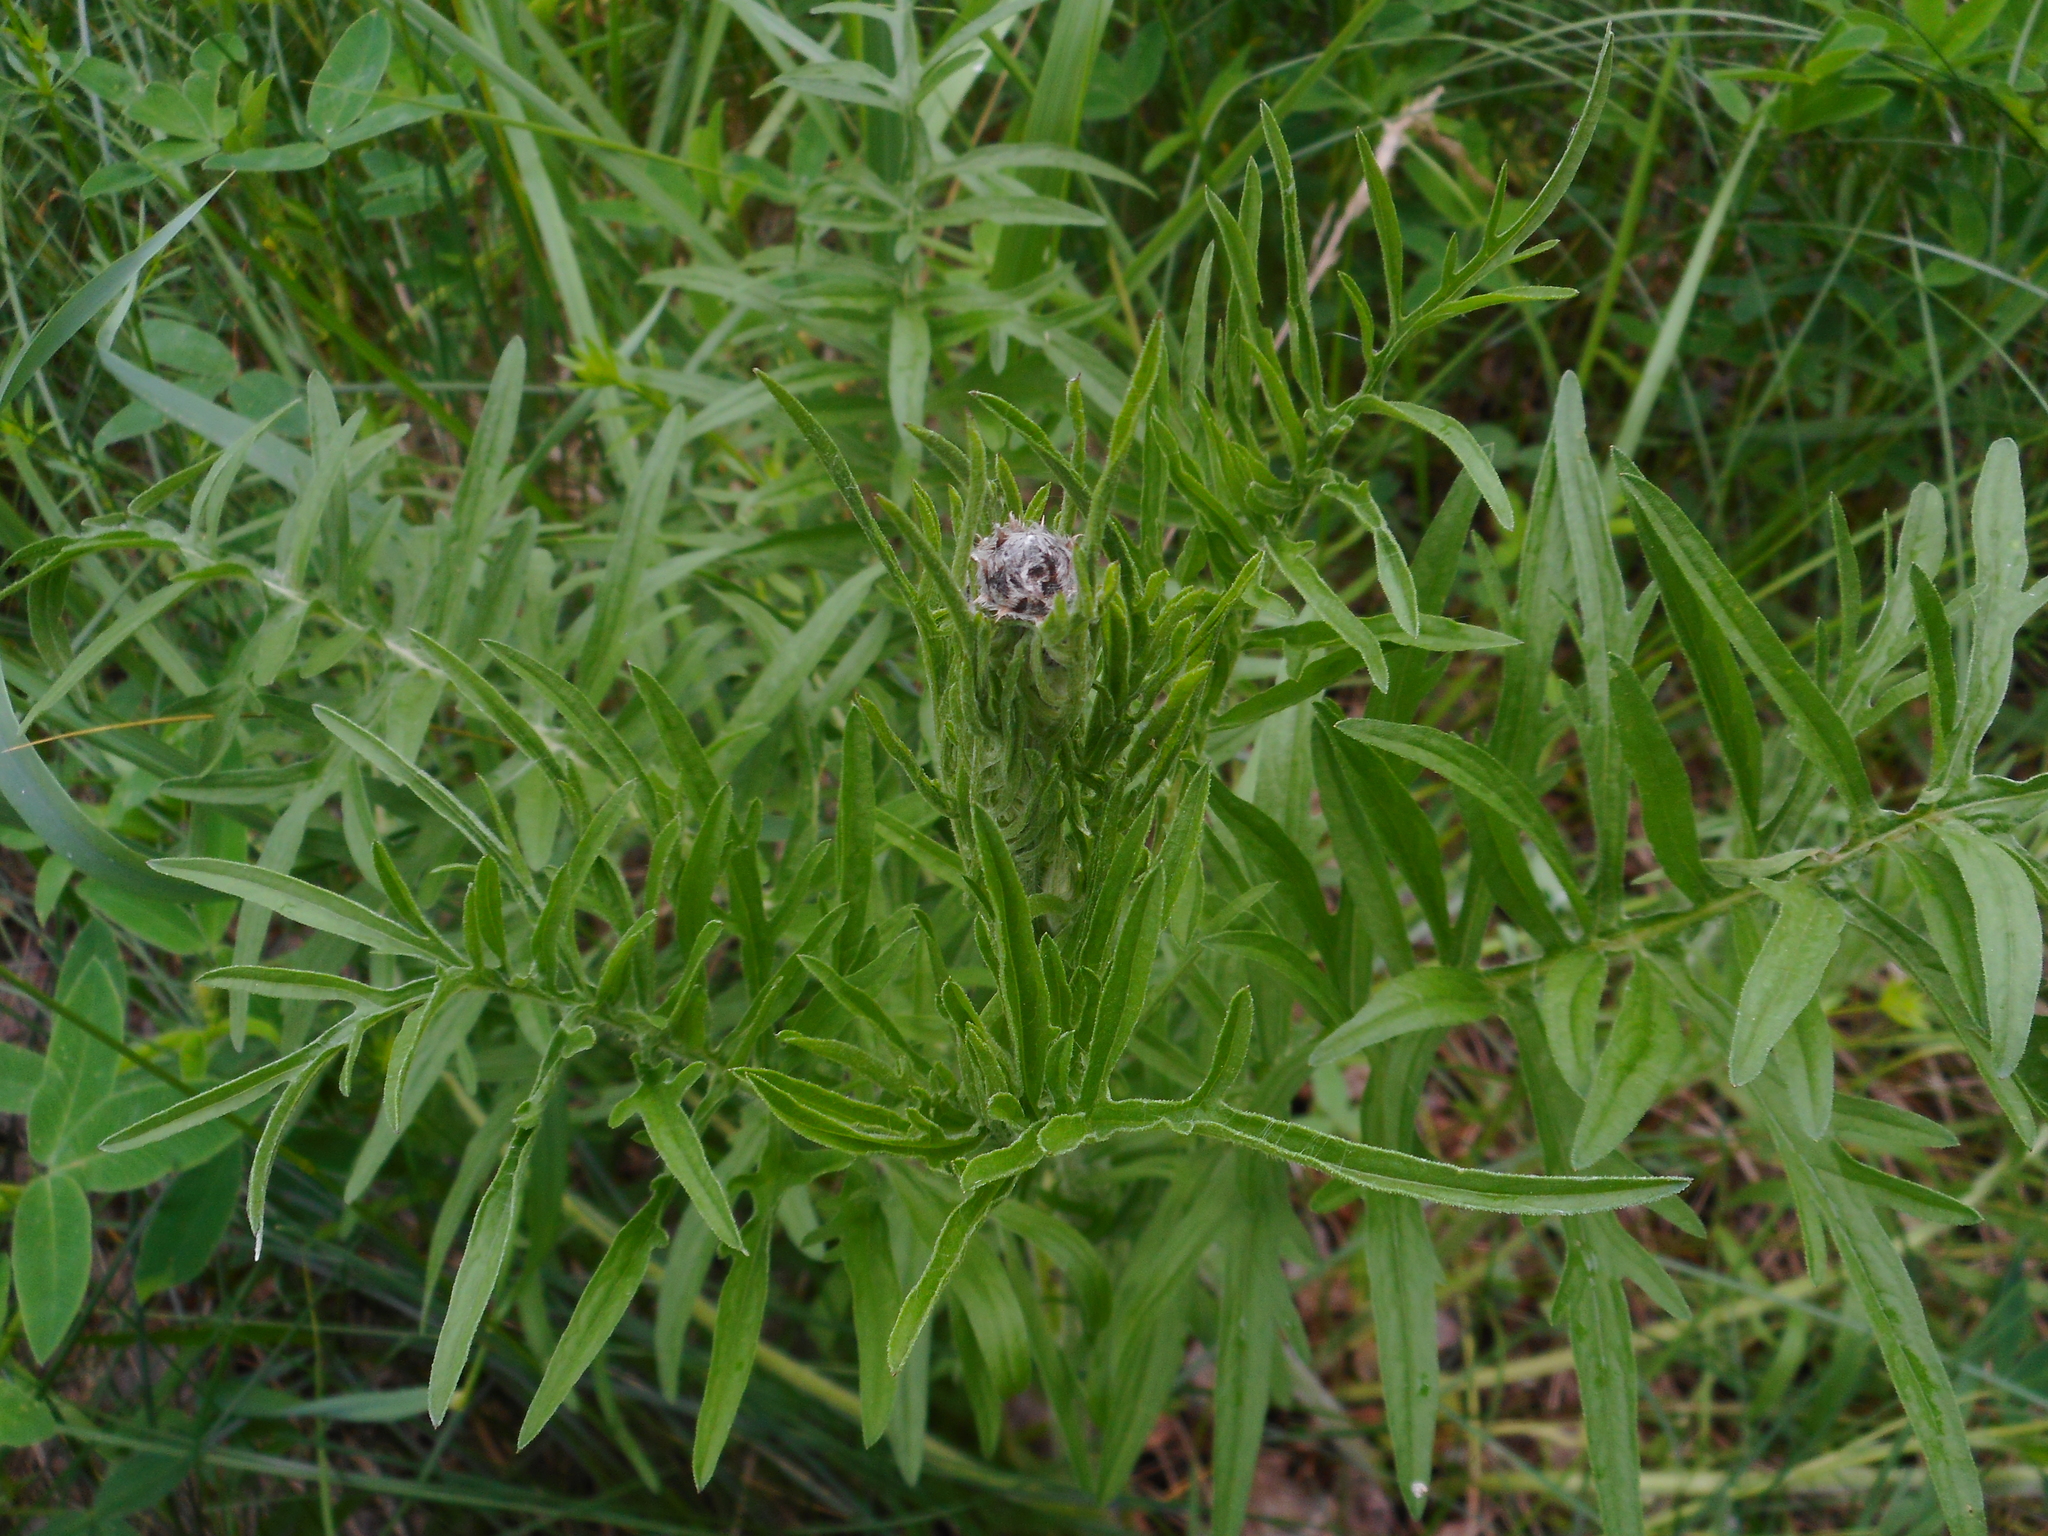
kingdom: Plantae
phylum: Tracheophyta
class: Magnoliopsida
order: Asterales
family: Asteraceae
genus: Centaurea
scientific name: Centaurea scabiosa
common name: Greater knapweed
